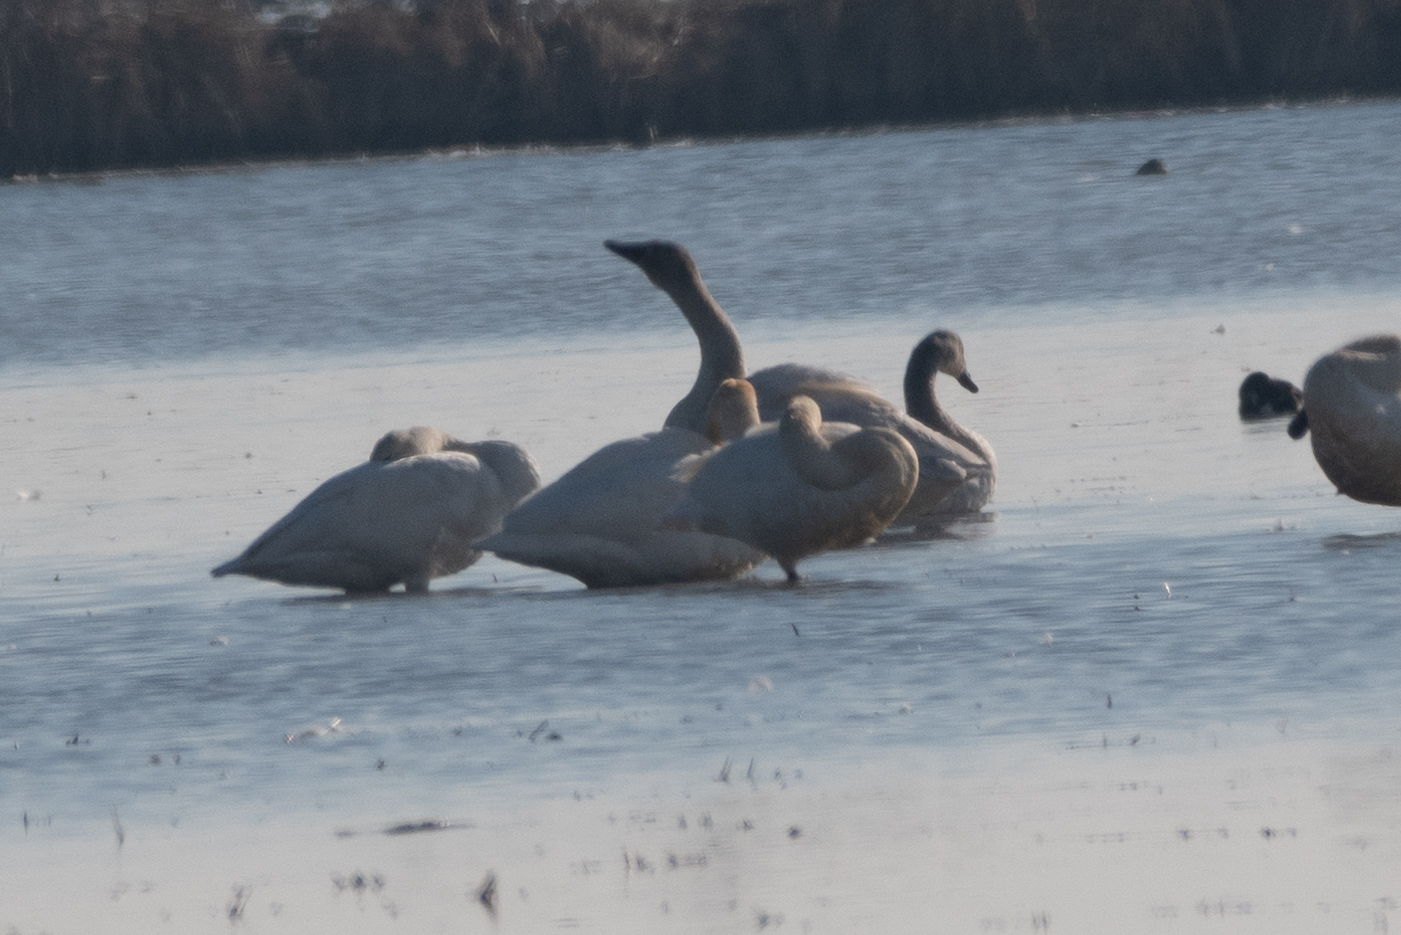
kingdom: Animalia
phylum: Chordata
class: Aves
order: Anseriformes
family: Anatidae
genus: Cygnus
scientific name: Cygnus columbianus
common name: Tundra swan
